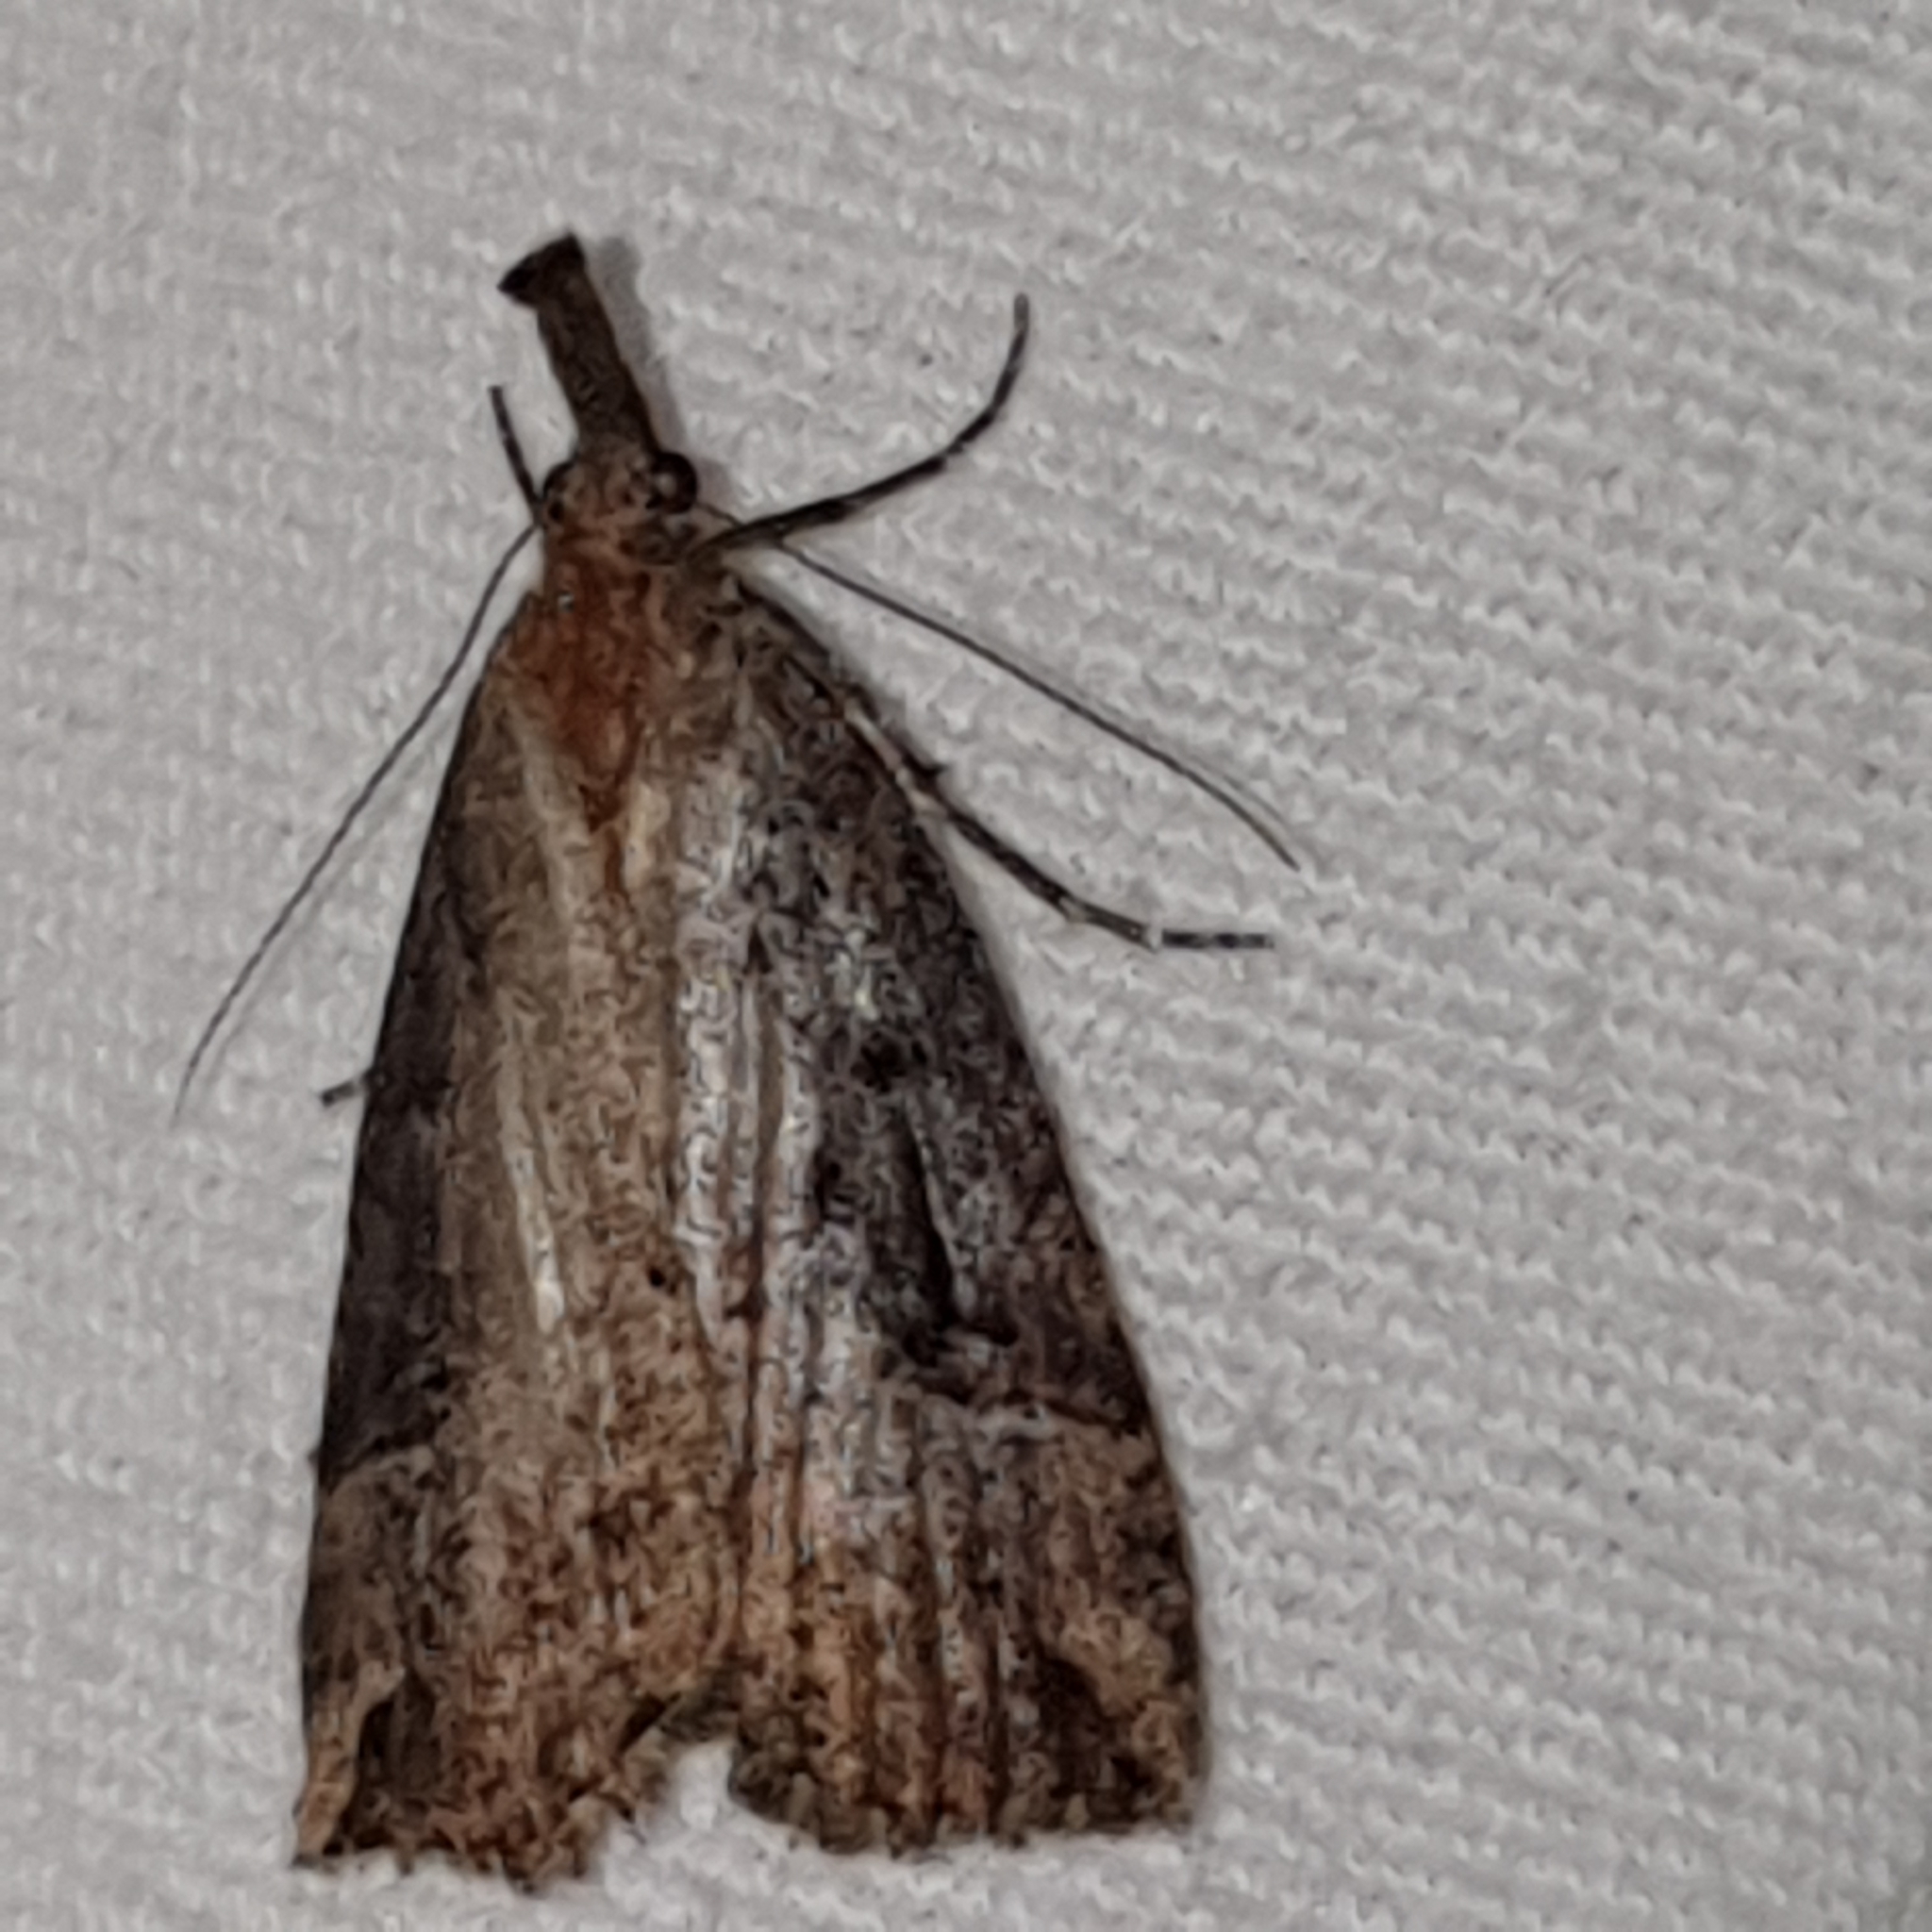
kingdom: Animalia
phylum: Arthropoda
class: Insecta
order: Lepidoptera
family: Erebidae
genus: Hypena
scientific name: Hypena rostralis
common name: Buttoned snout
